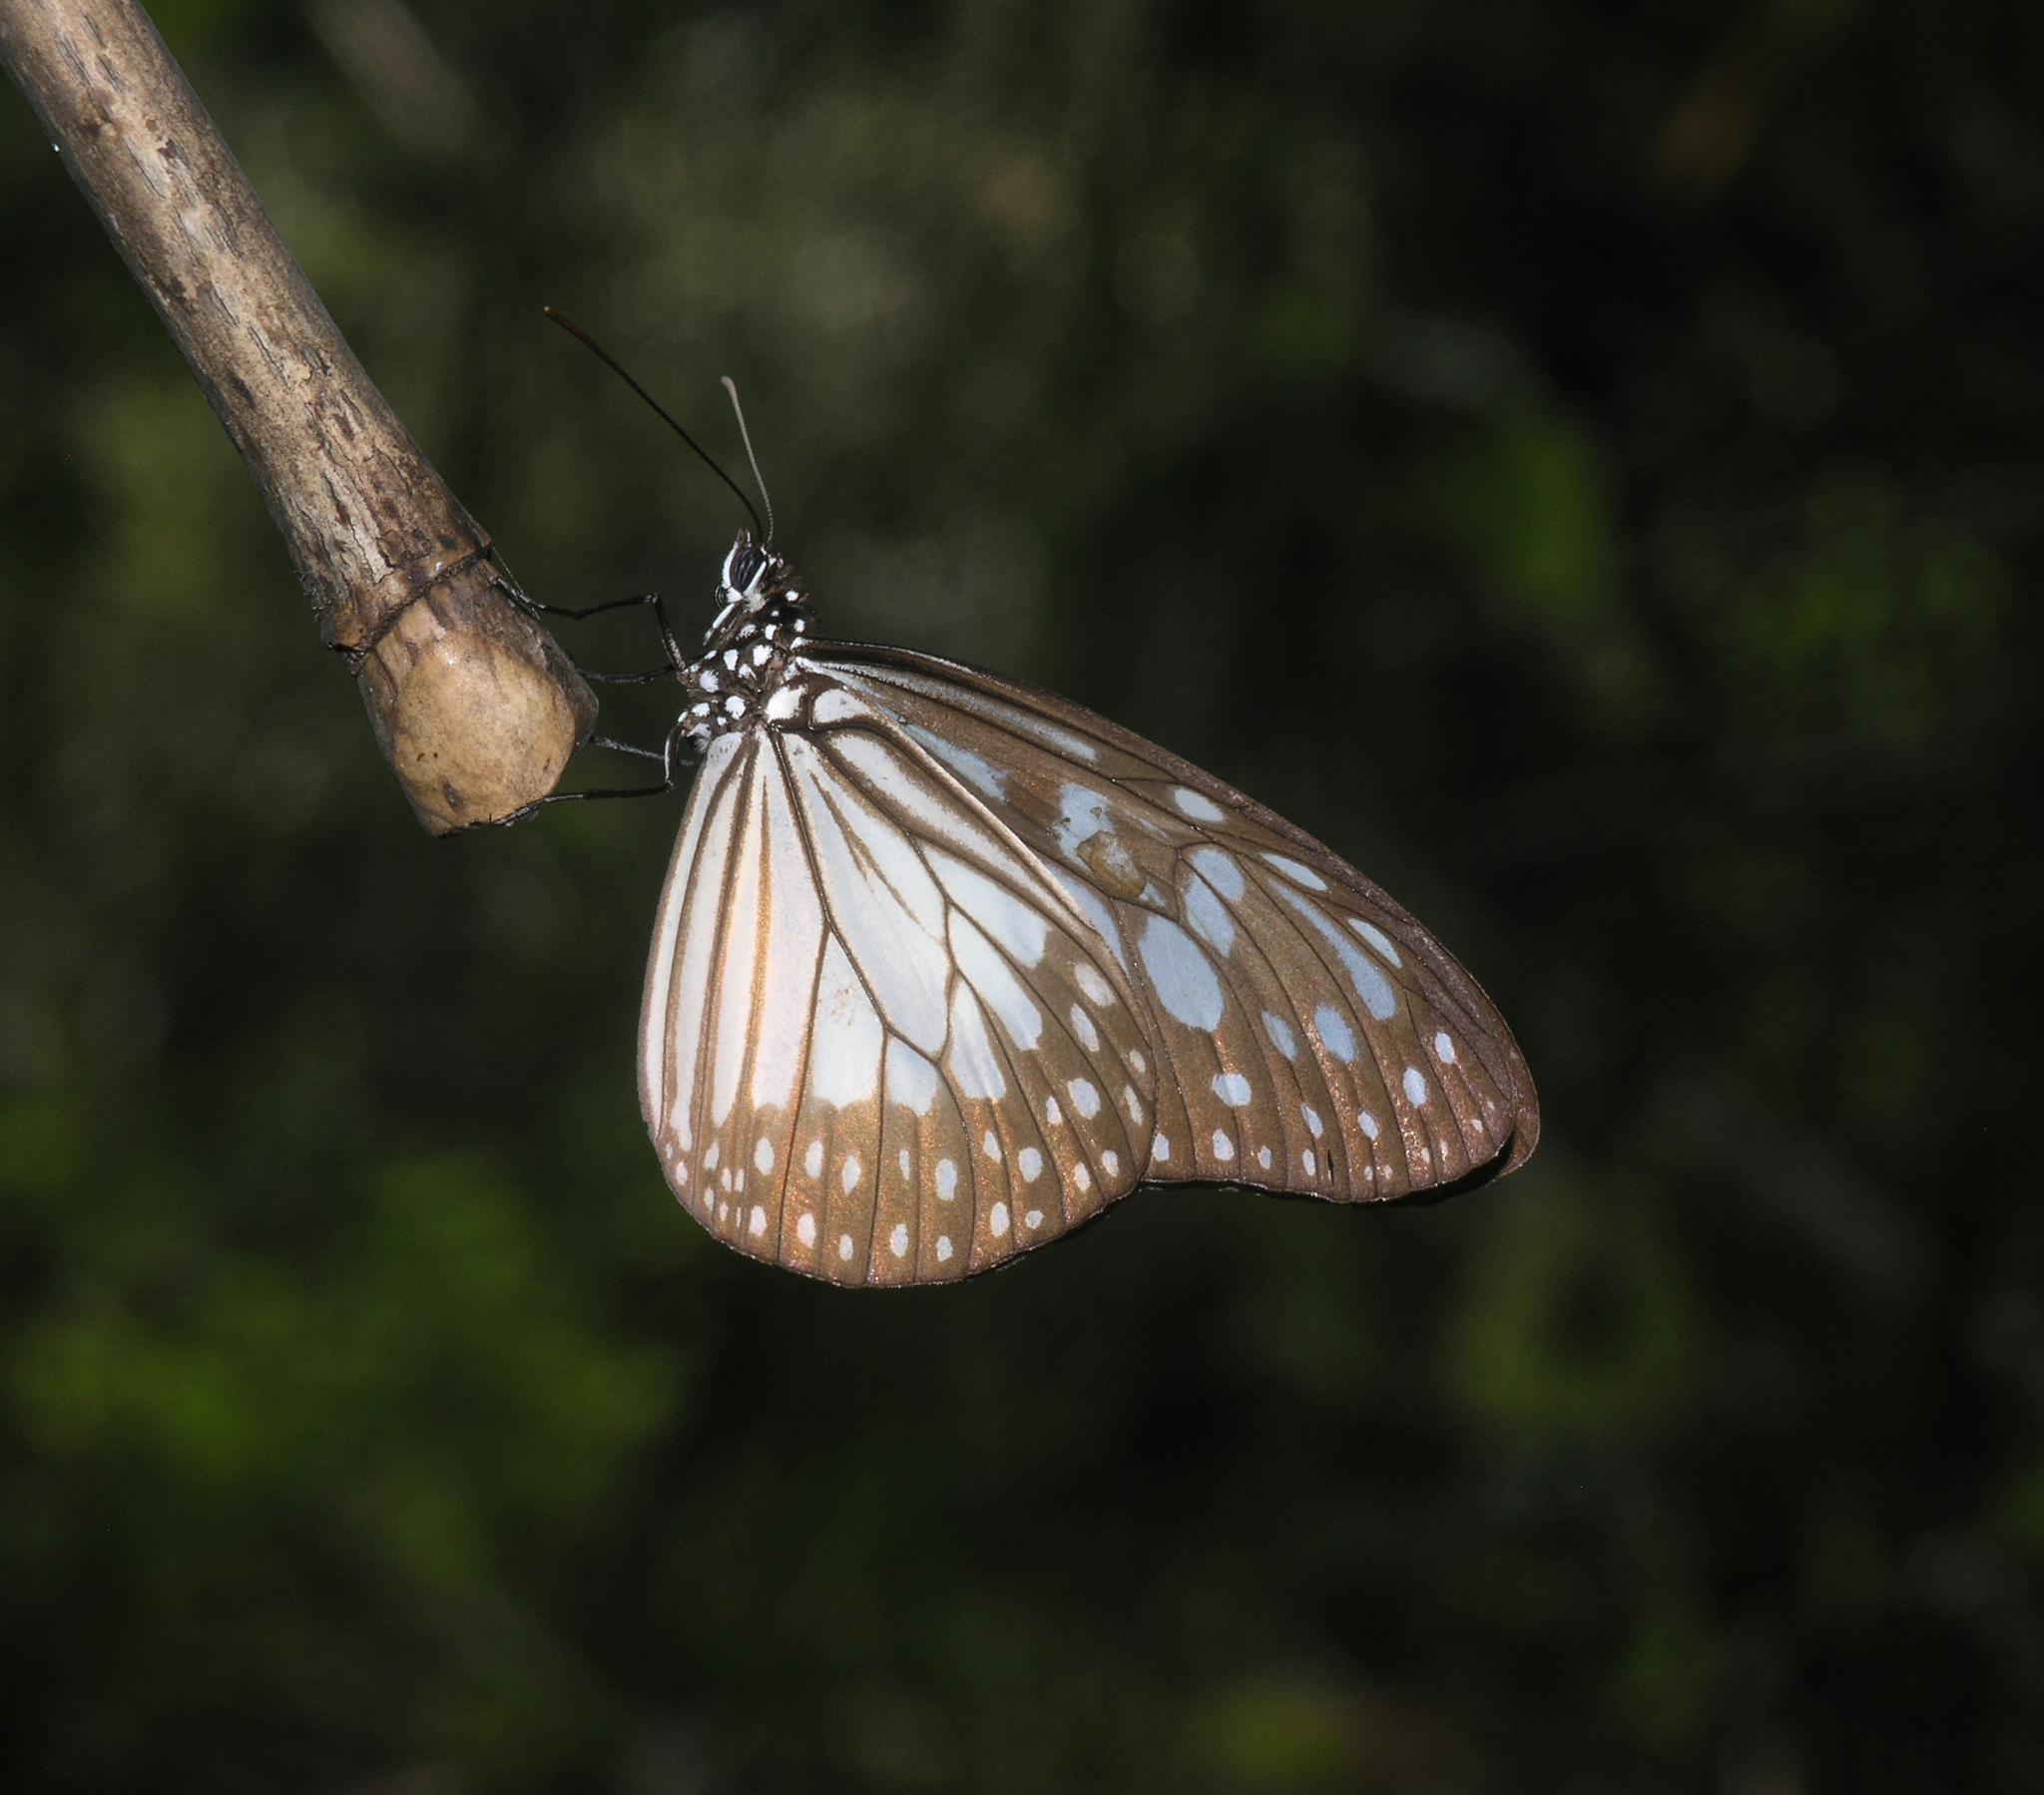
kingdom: Animalia
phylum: Arthropoda
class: Insecta
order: Lepidoptera
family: Nymphalidae
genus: Ideopsis
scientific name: Ideopsis juventa
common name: Grey glassy tiger
